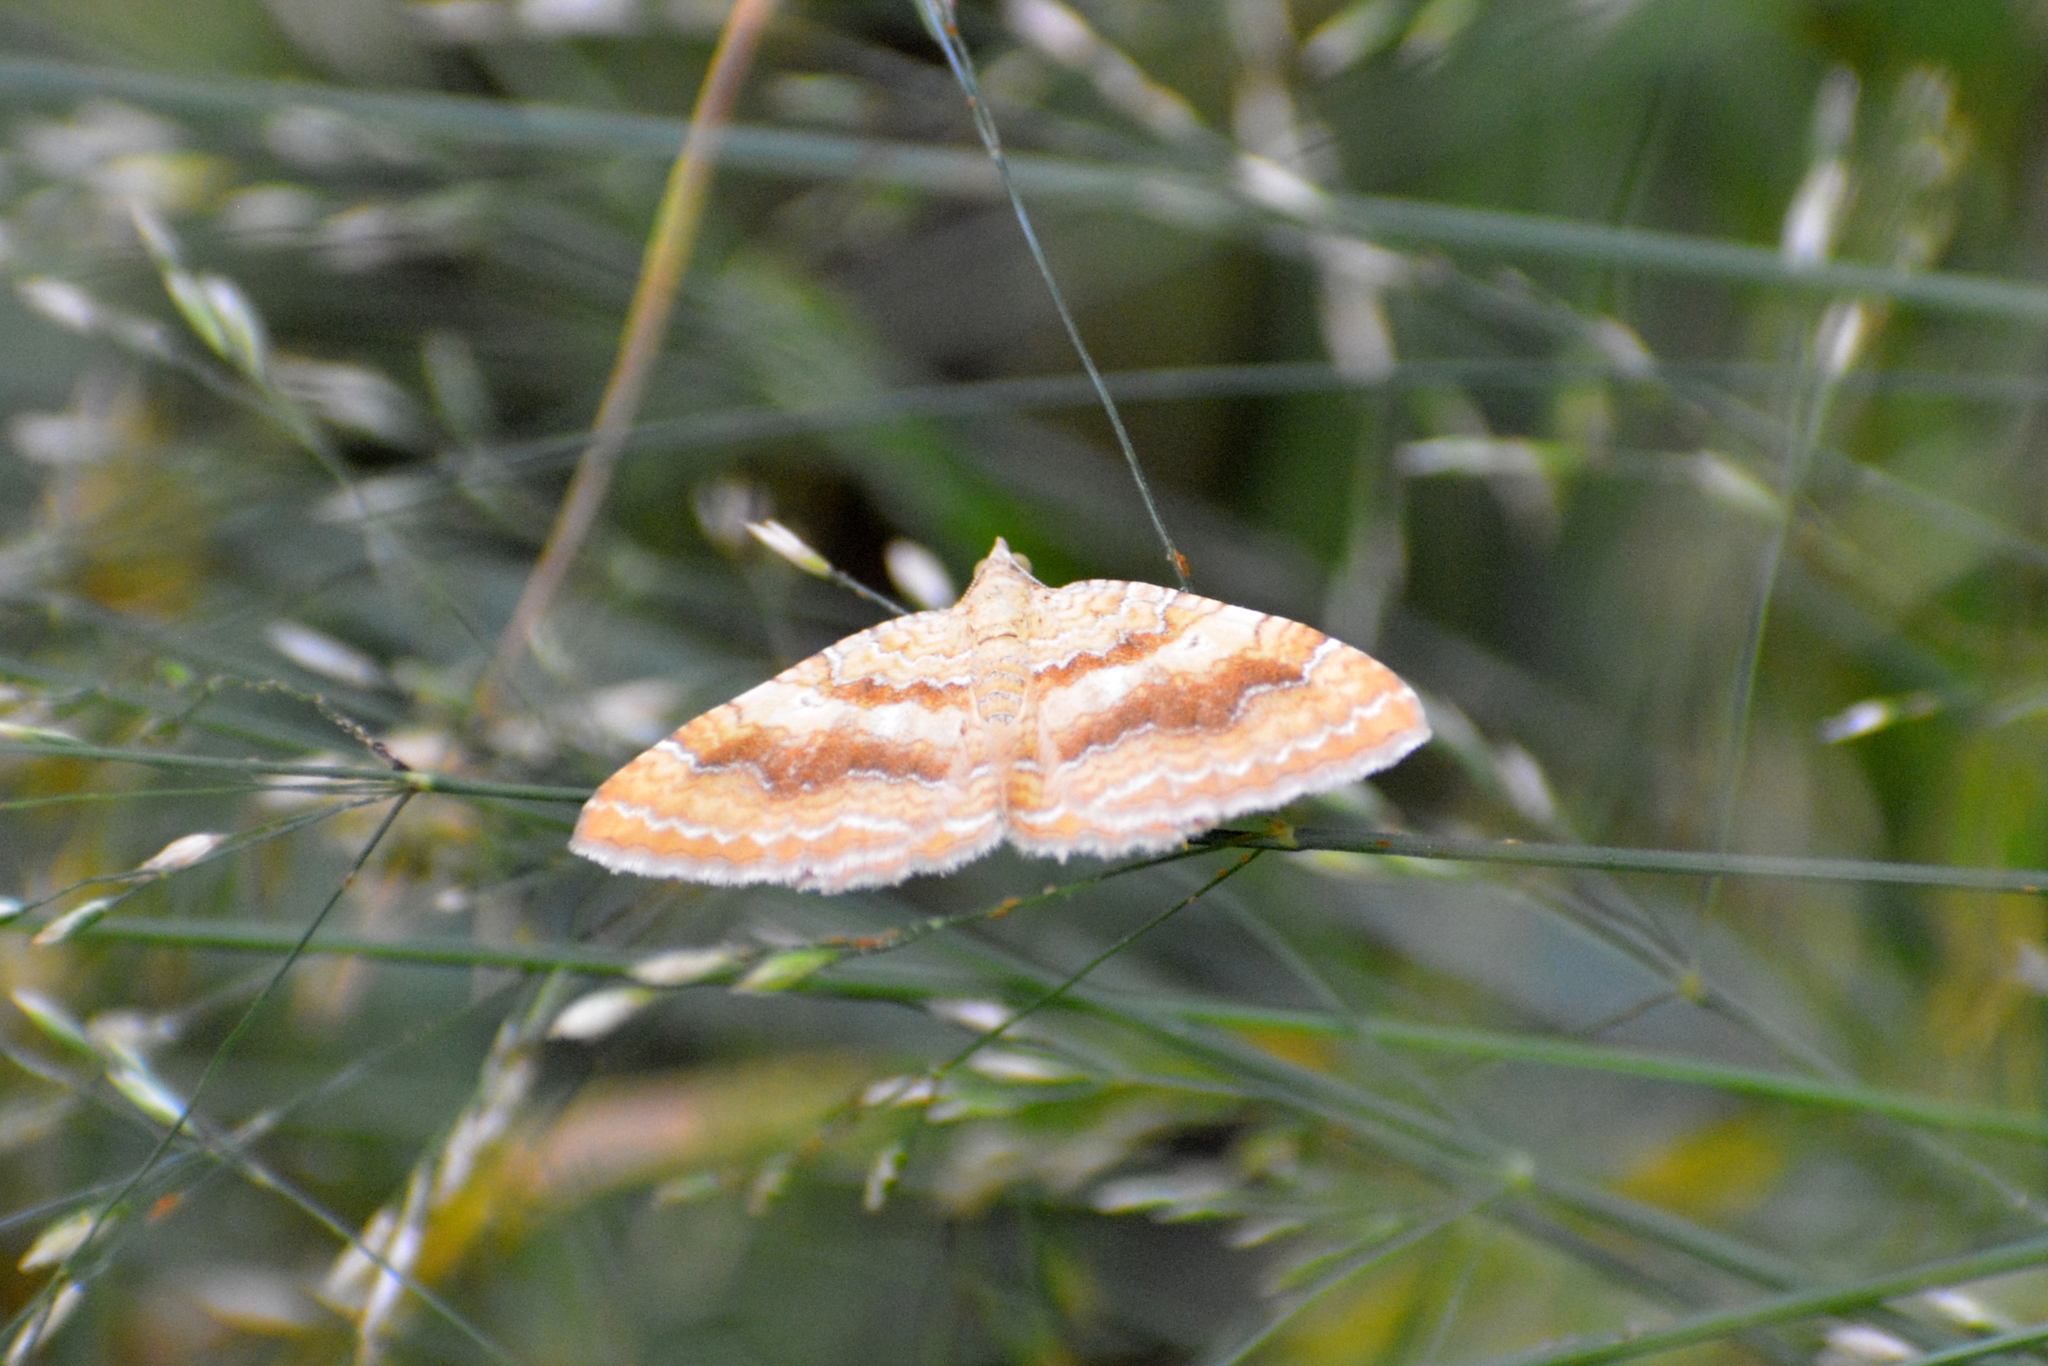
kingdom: Animalia
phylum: Arthropoda
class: Insecta
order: Lepidoptera
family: Geometridae
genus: Camptogramma
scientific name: Camptogramma bilineata
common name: Yellow shell
